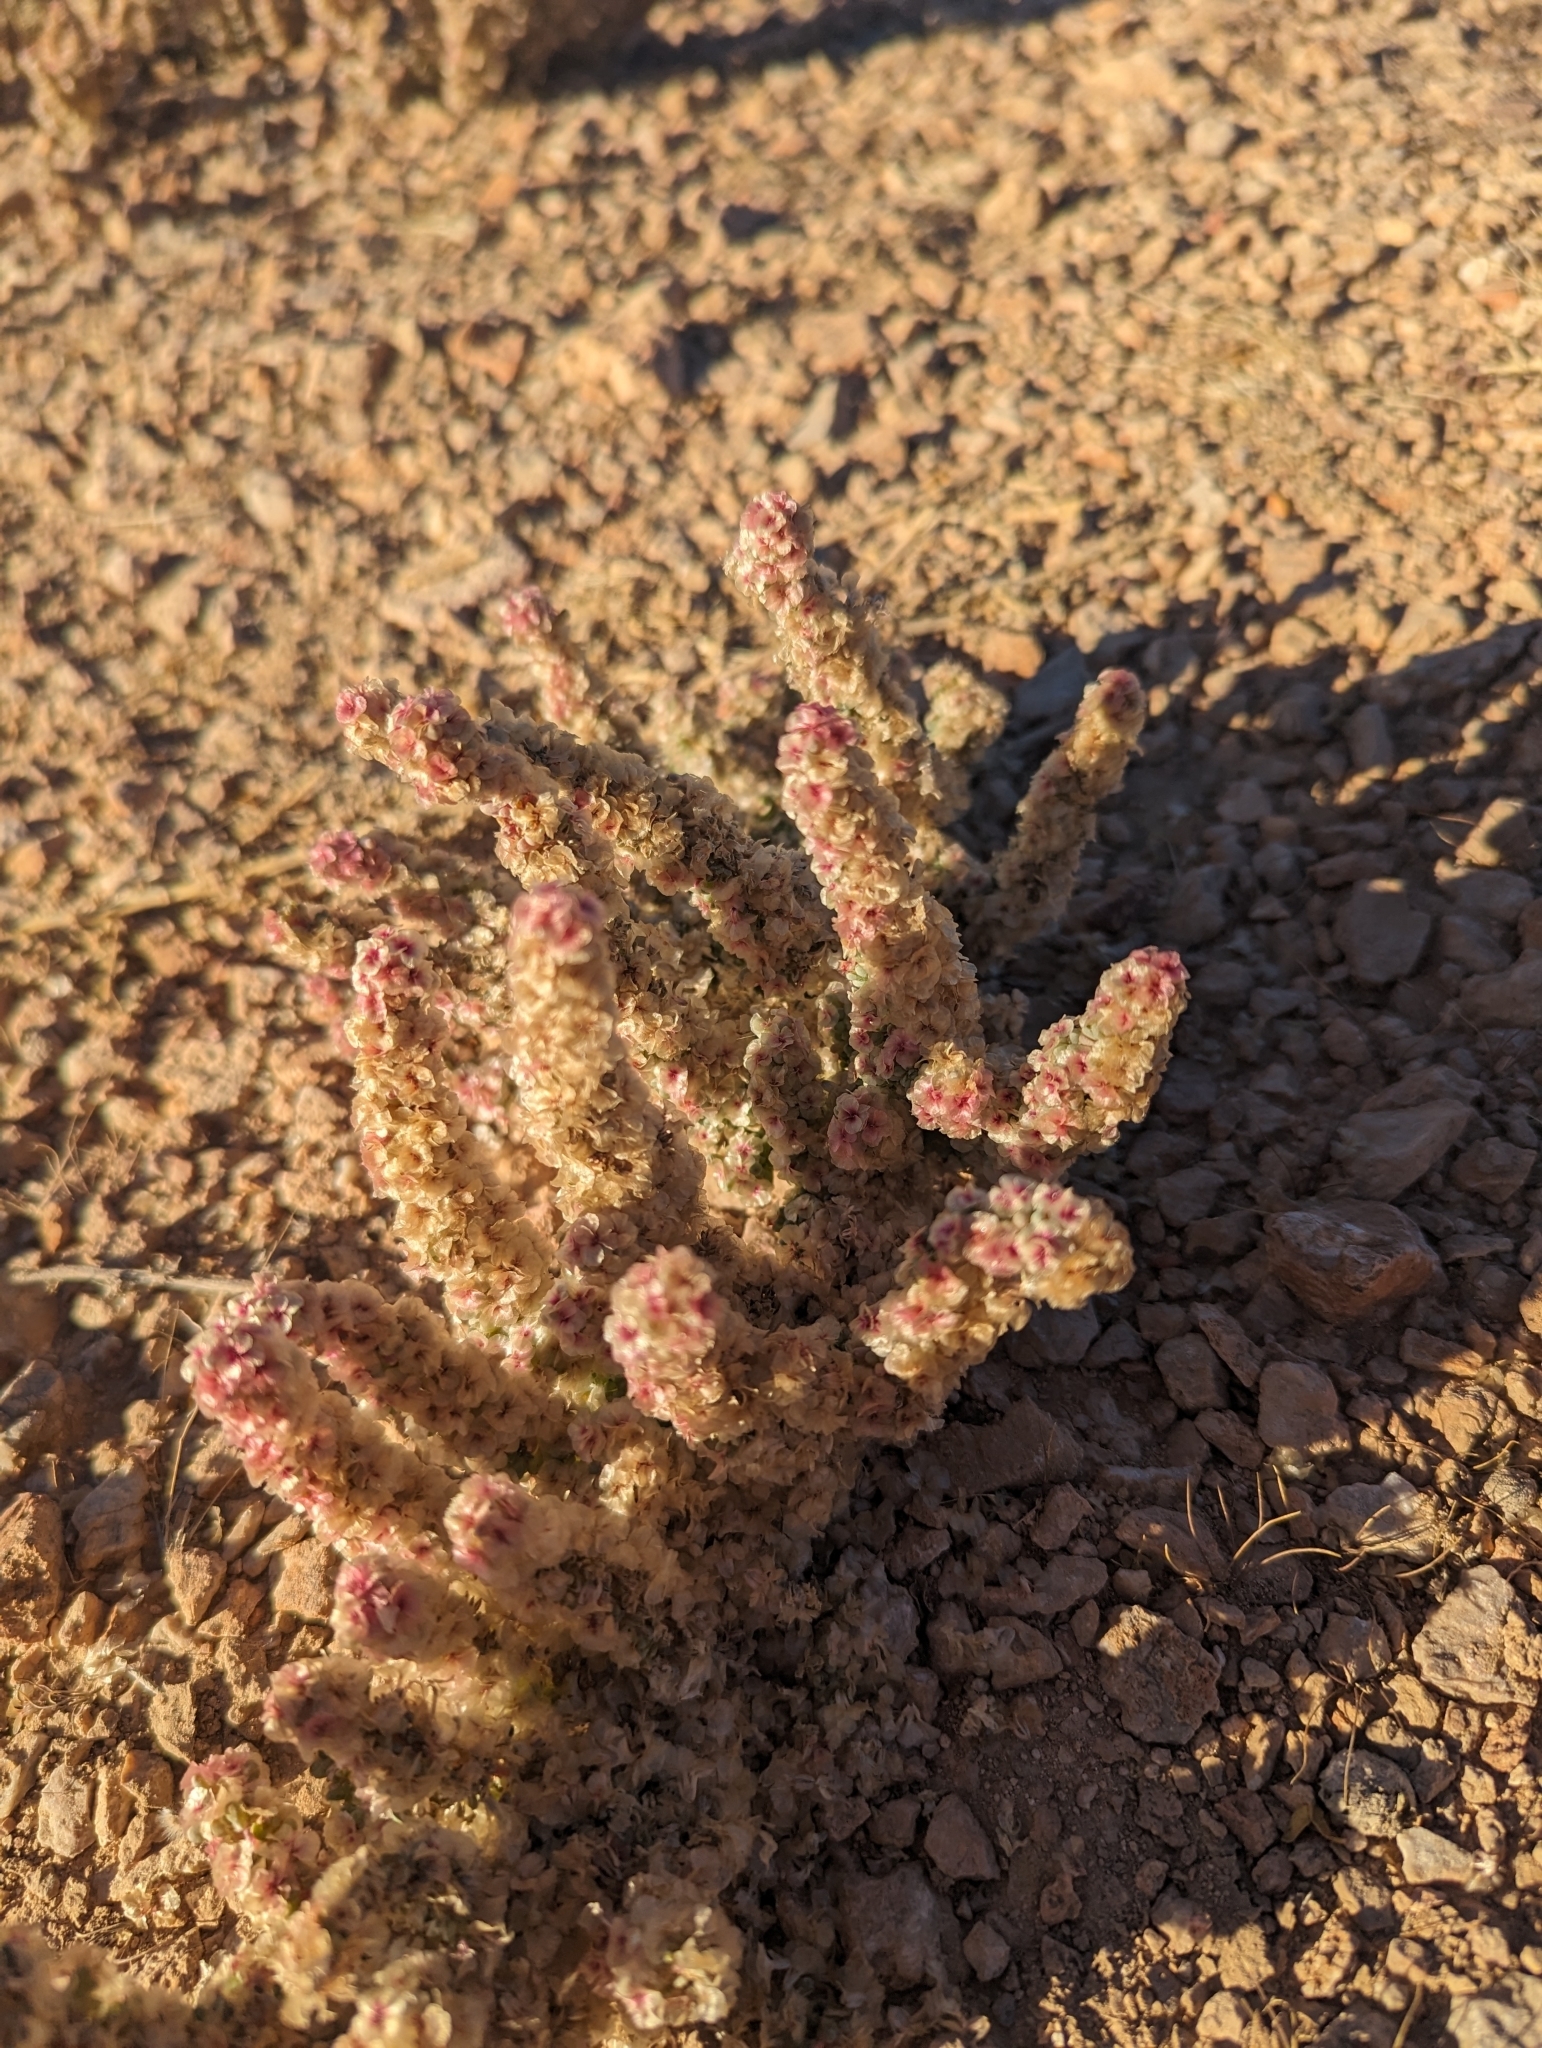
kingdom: Plantae
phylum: Tracheophyta
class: Magnoliopsida
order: Caryophyllales
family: Amaranthaceae
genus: Halogeton
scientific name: Halogeton glomeratus
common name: Saltlover
